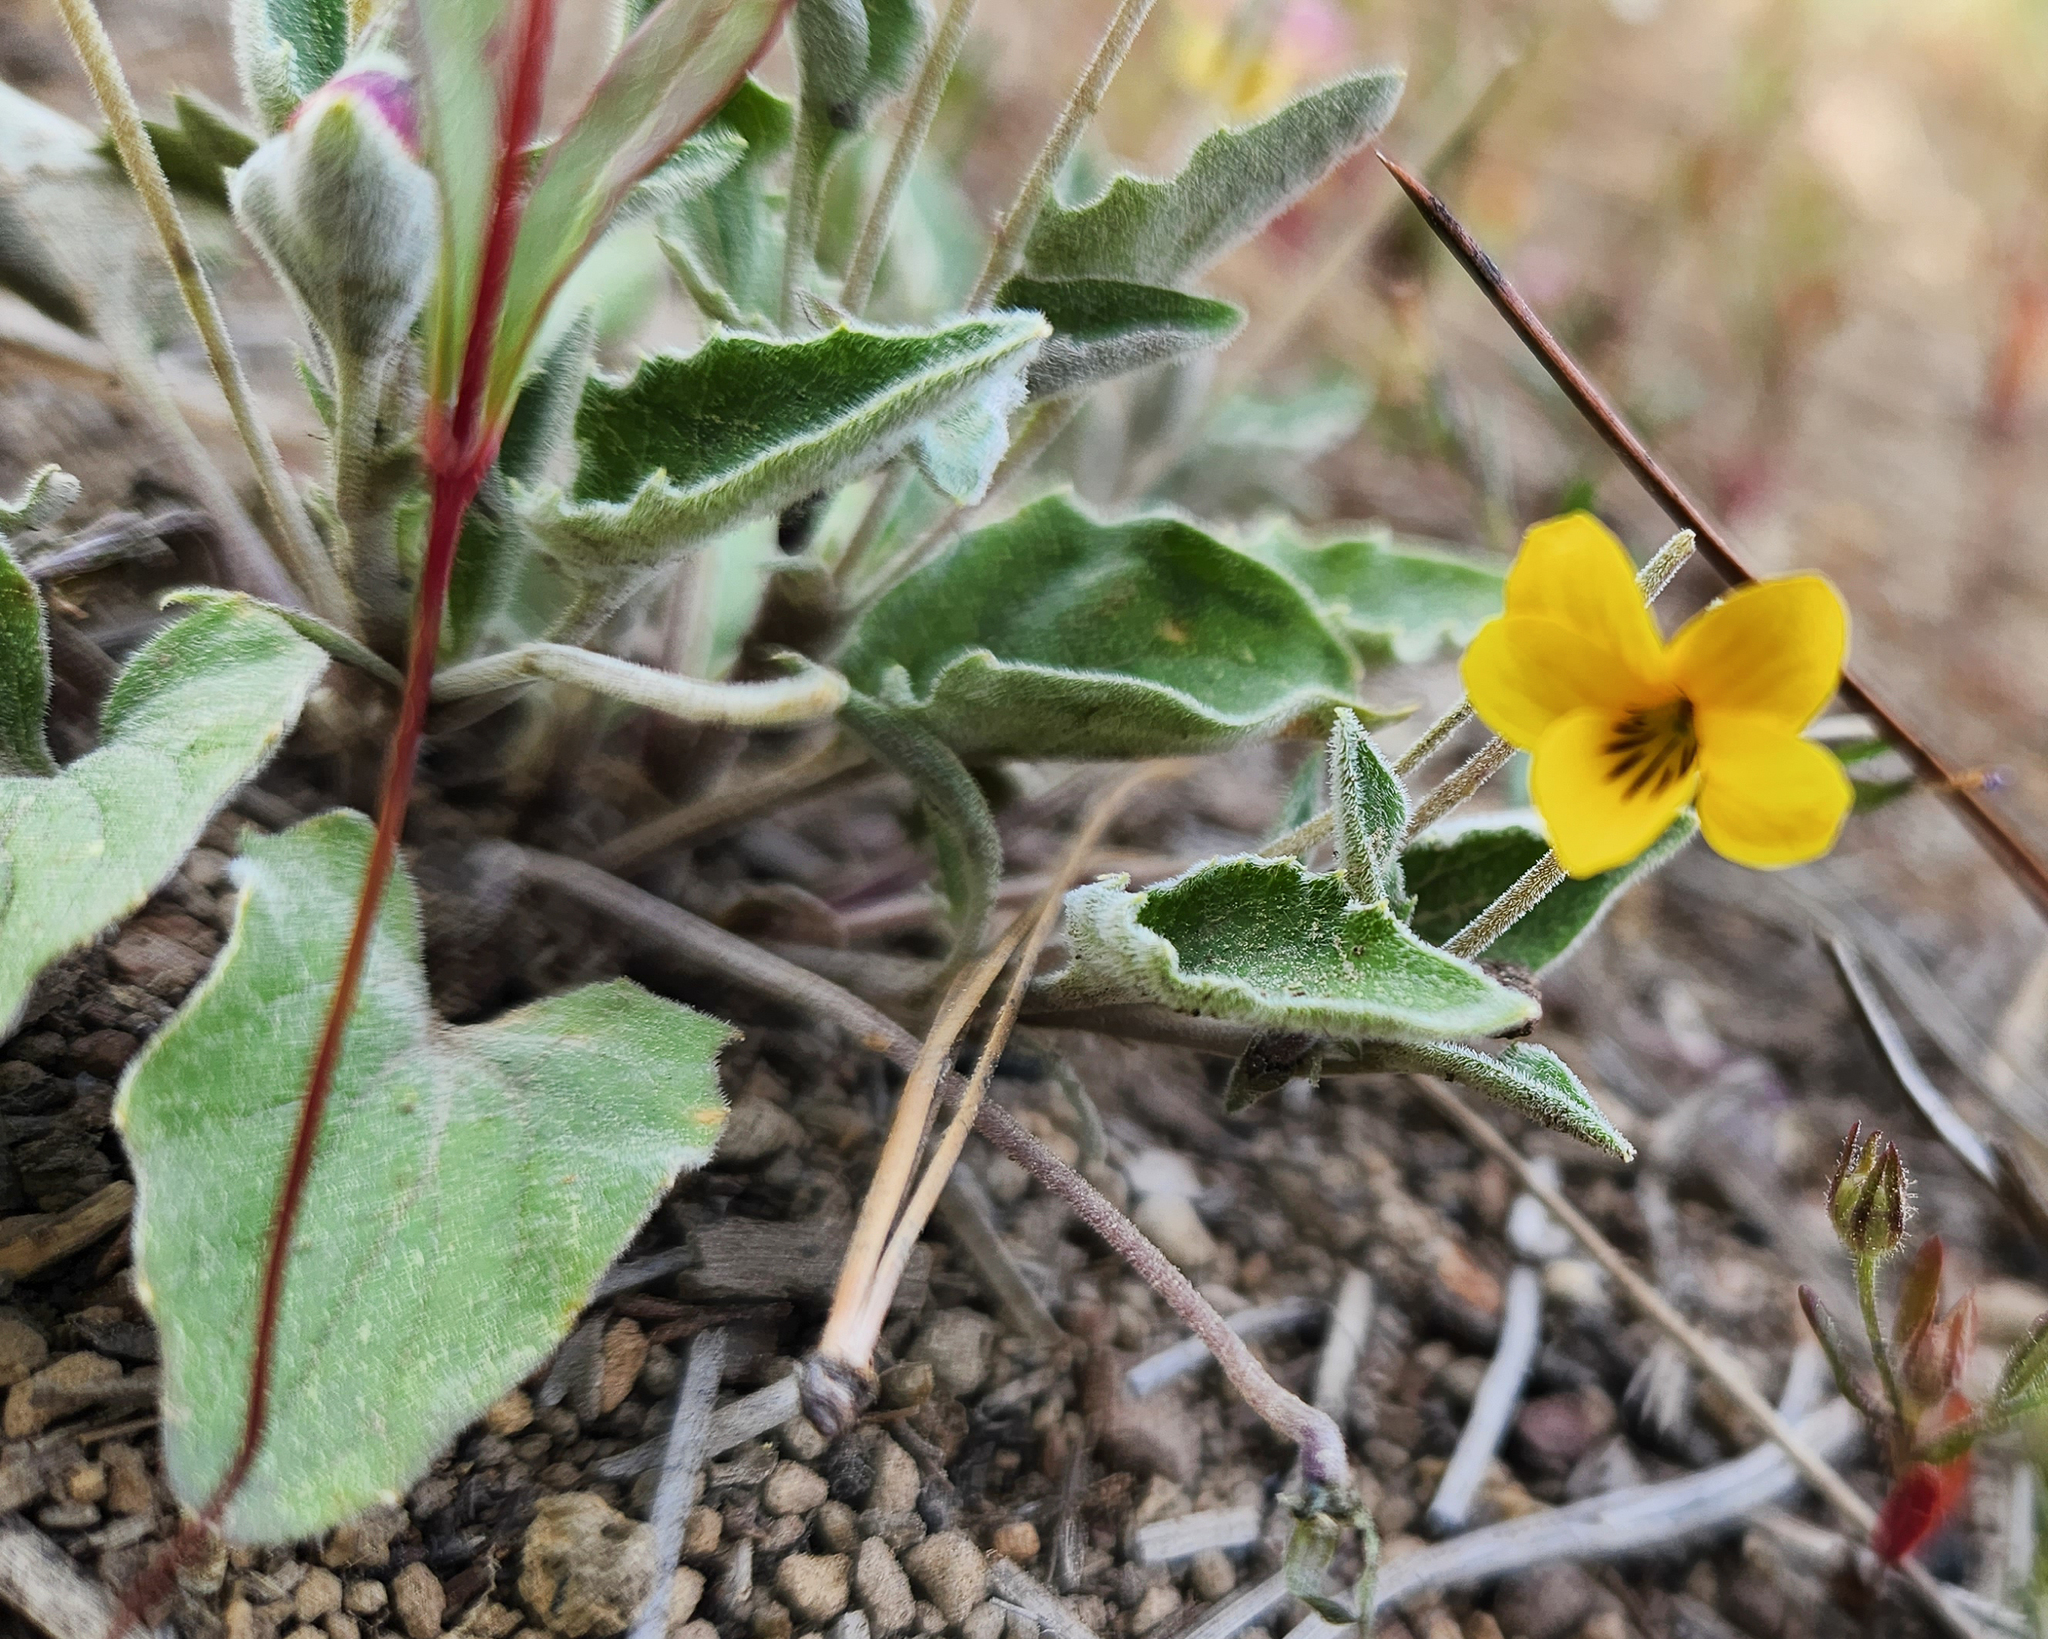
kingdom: Plantae
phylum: Tracheophyta
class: Magnoliopsida
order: Malpighiales
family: Violaceae
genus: Viola
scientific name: Viola purpurea
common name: Pine violet
